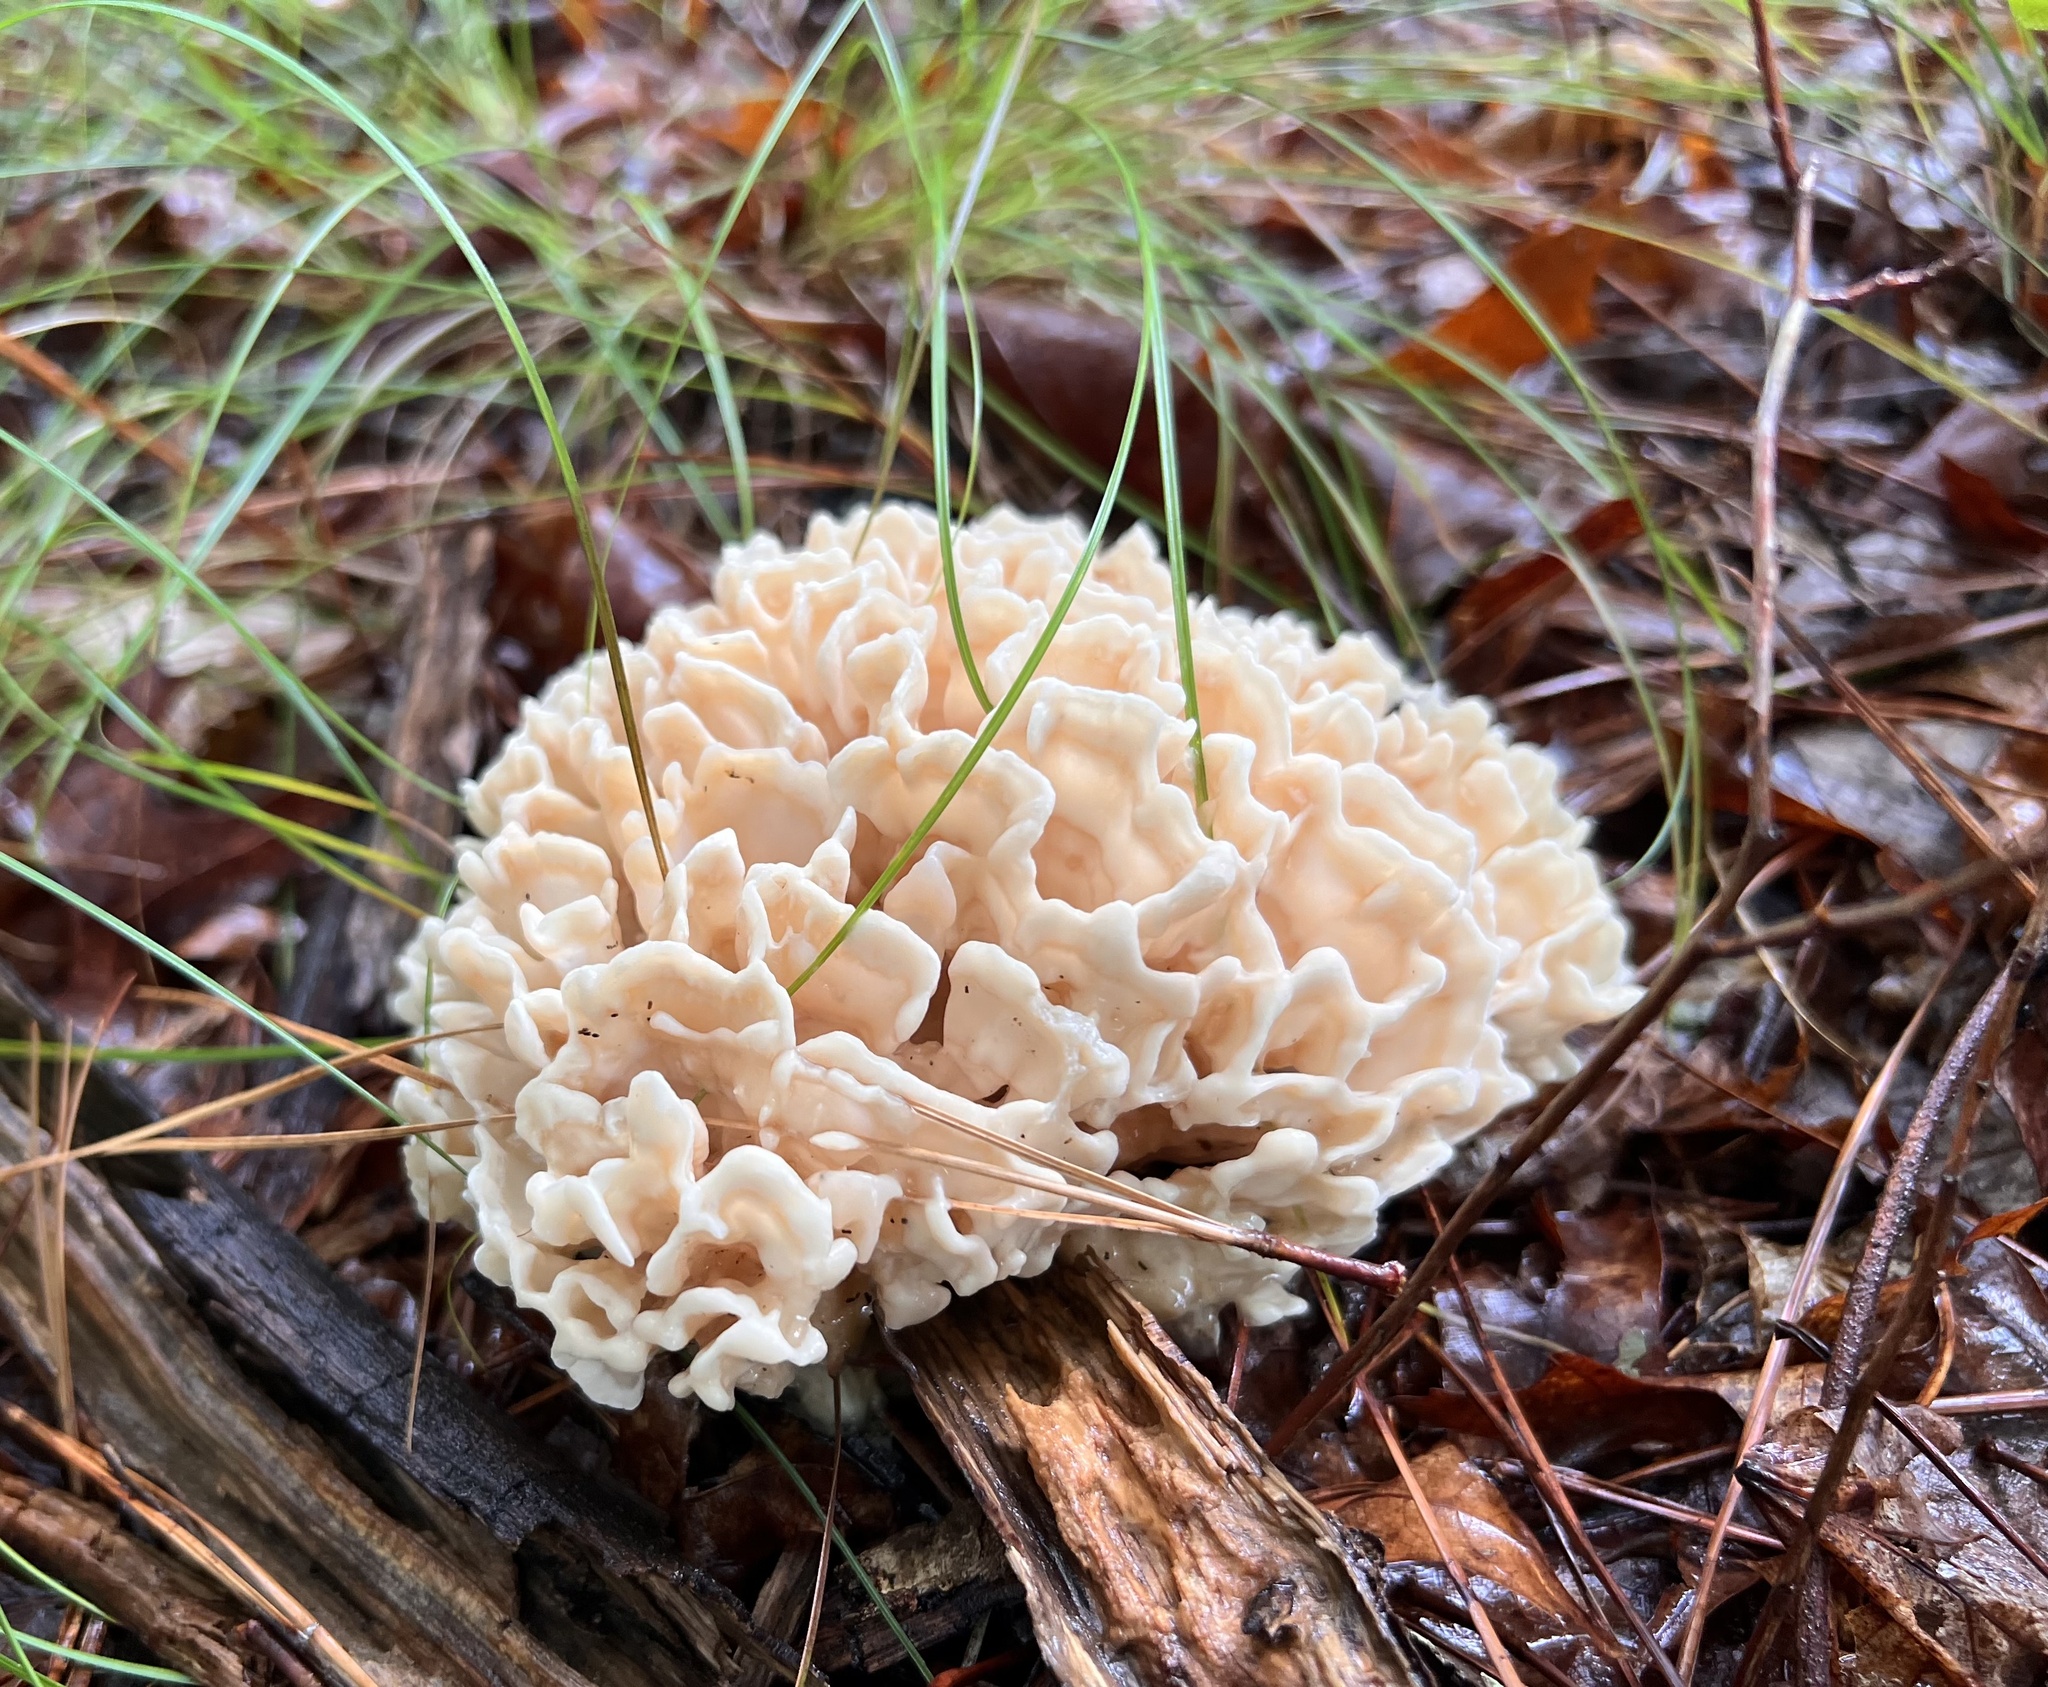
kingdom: Fungi
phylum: Basidiomycota
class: Agaricomycetes
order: Polyporales
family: Sparassidaceae
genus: Sparassis
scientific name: Sparassis spathulata
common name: Eastern cauliflower mushroom
